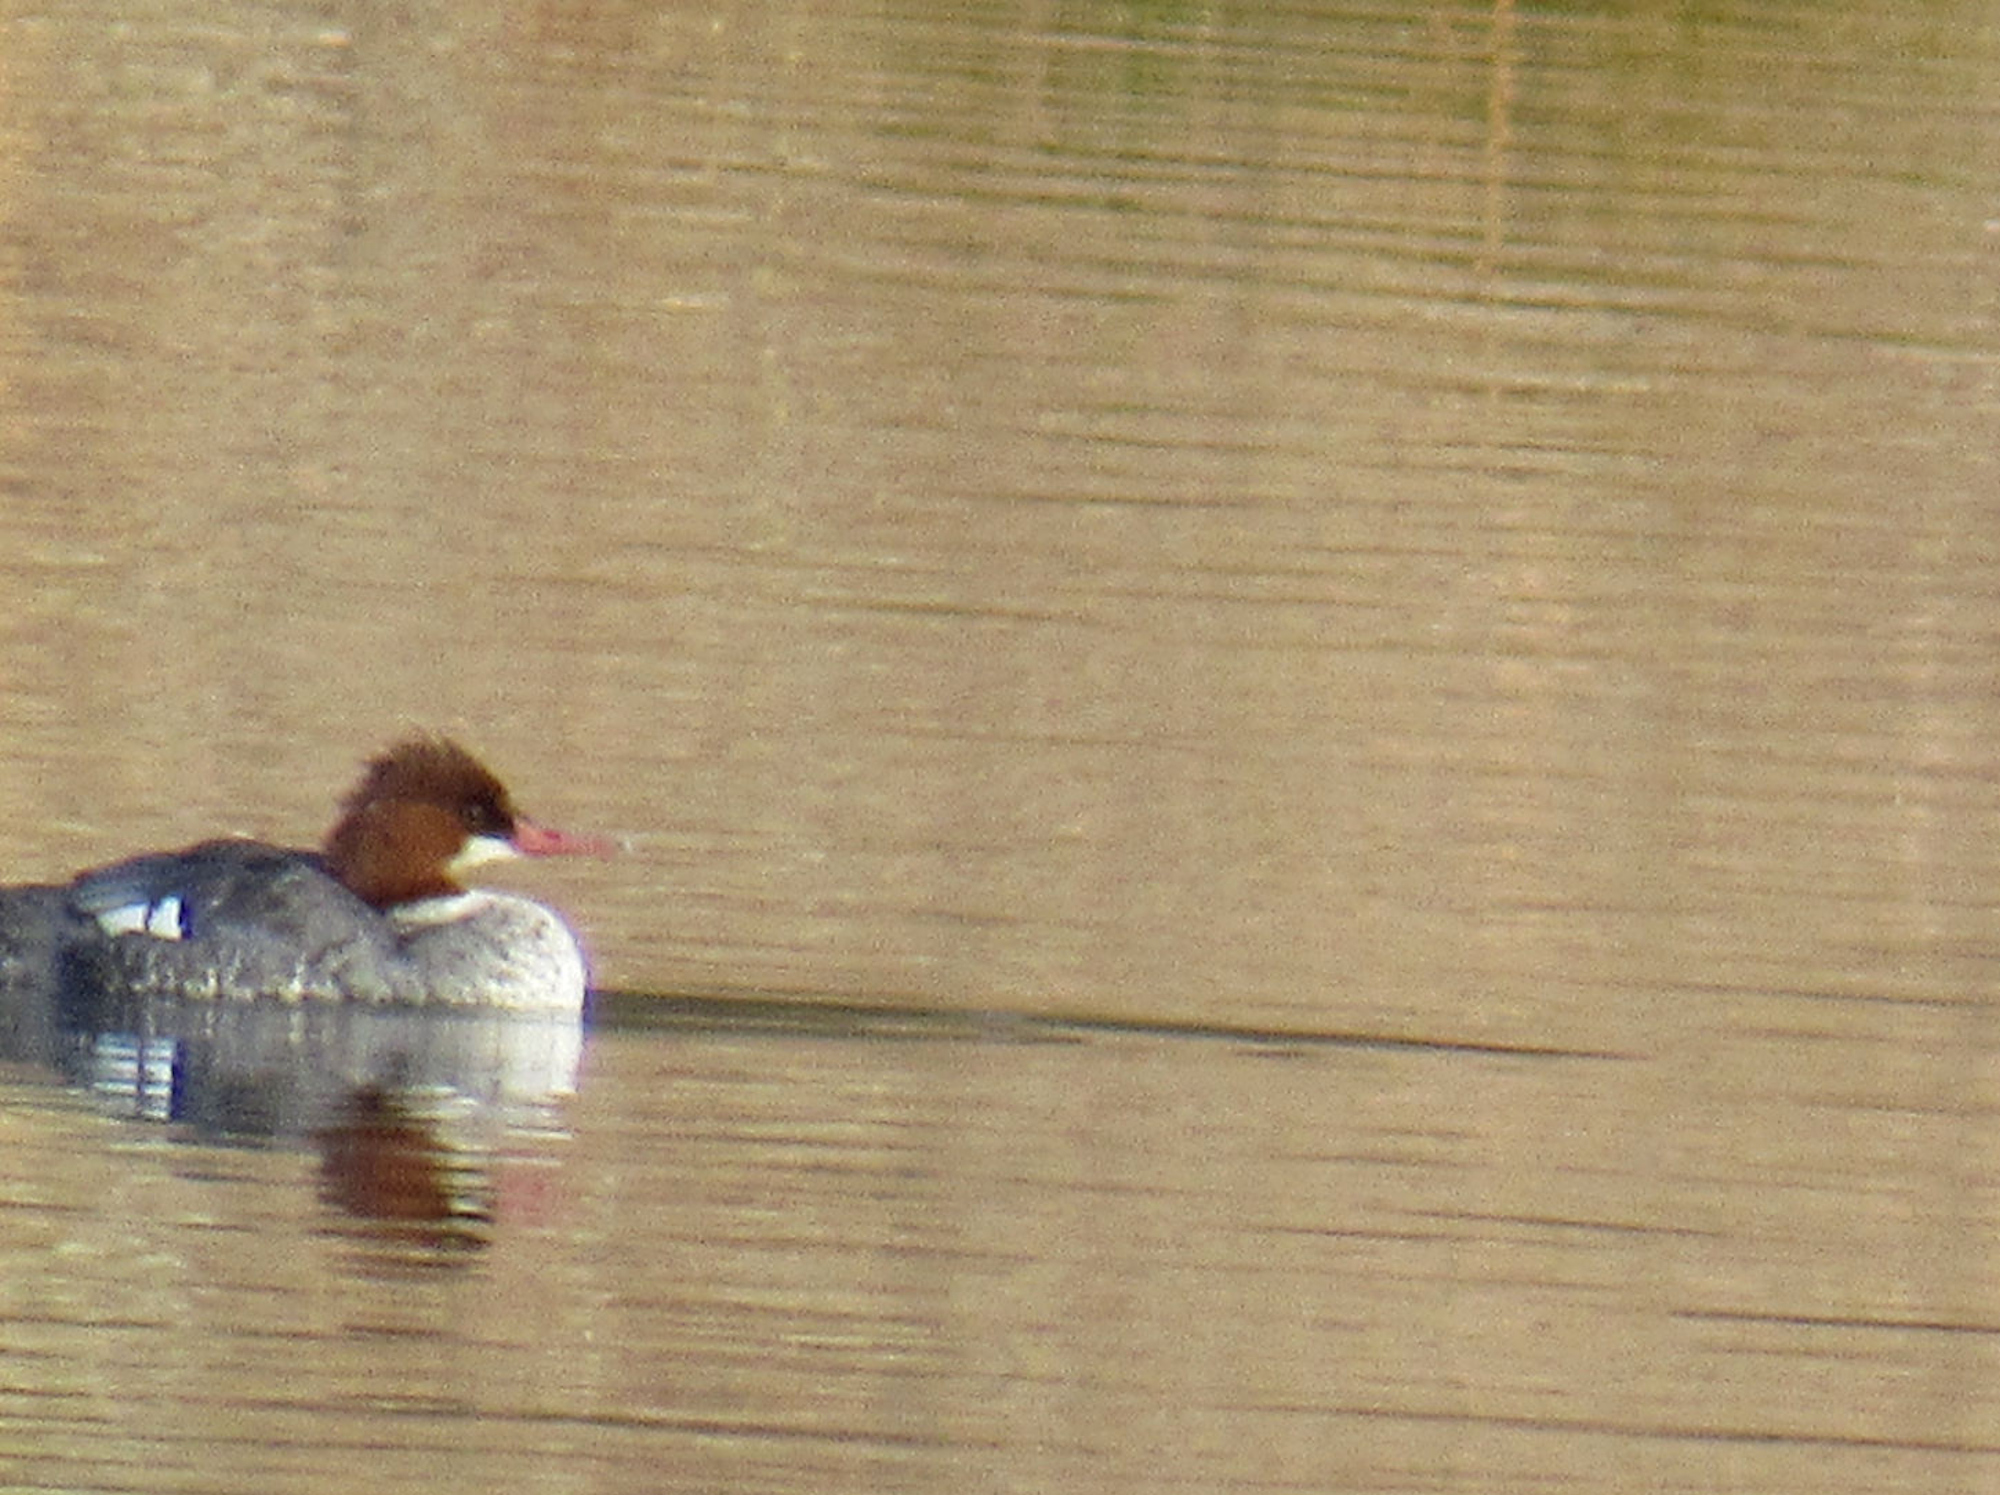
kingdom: Animalia
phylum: Chordata
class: Aves
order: Anseriformes
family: Anatidae
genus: Mergus
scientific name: Mergus merganser
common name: Common merganser
